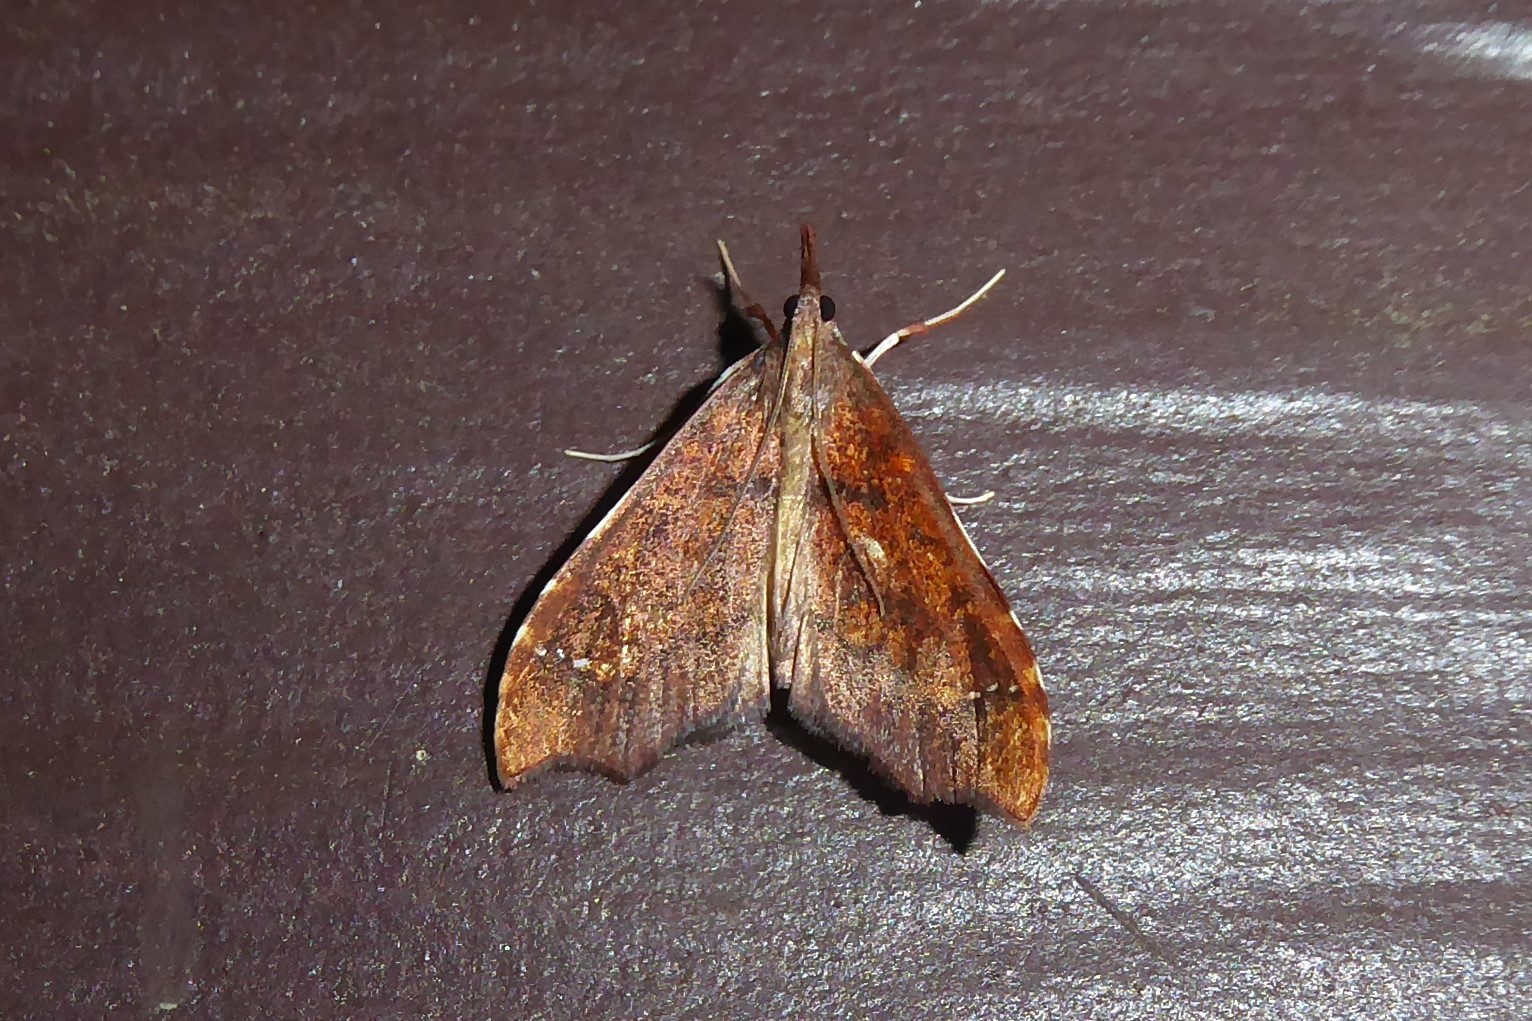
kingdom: Animalia
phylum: Arthropoda
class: Insecta
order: Lepidoptera
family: Crambidae
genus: Deana
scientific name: Deana hybreasalis
